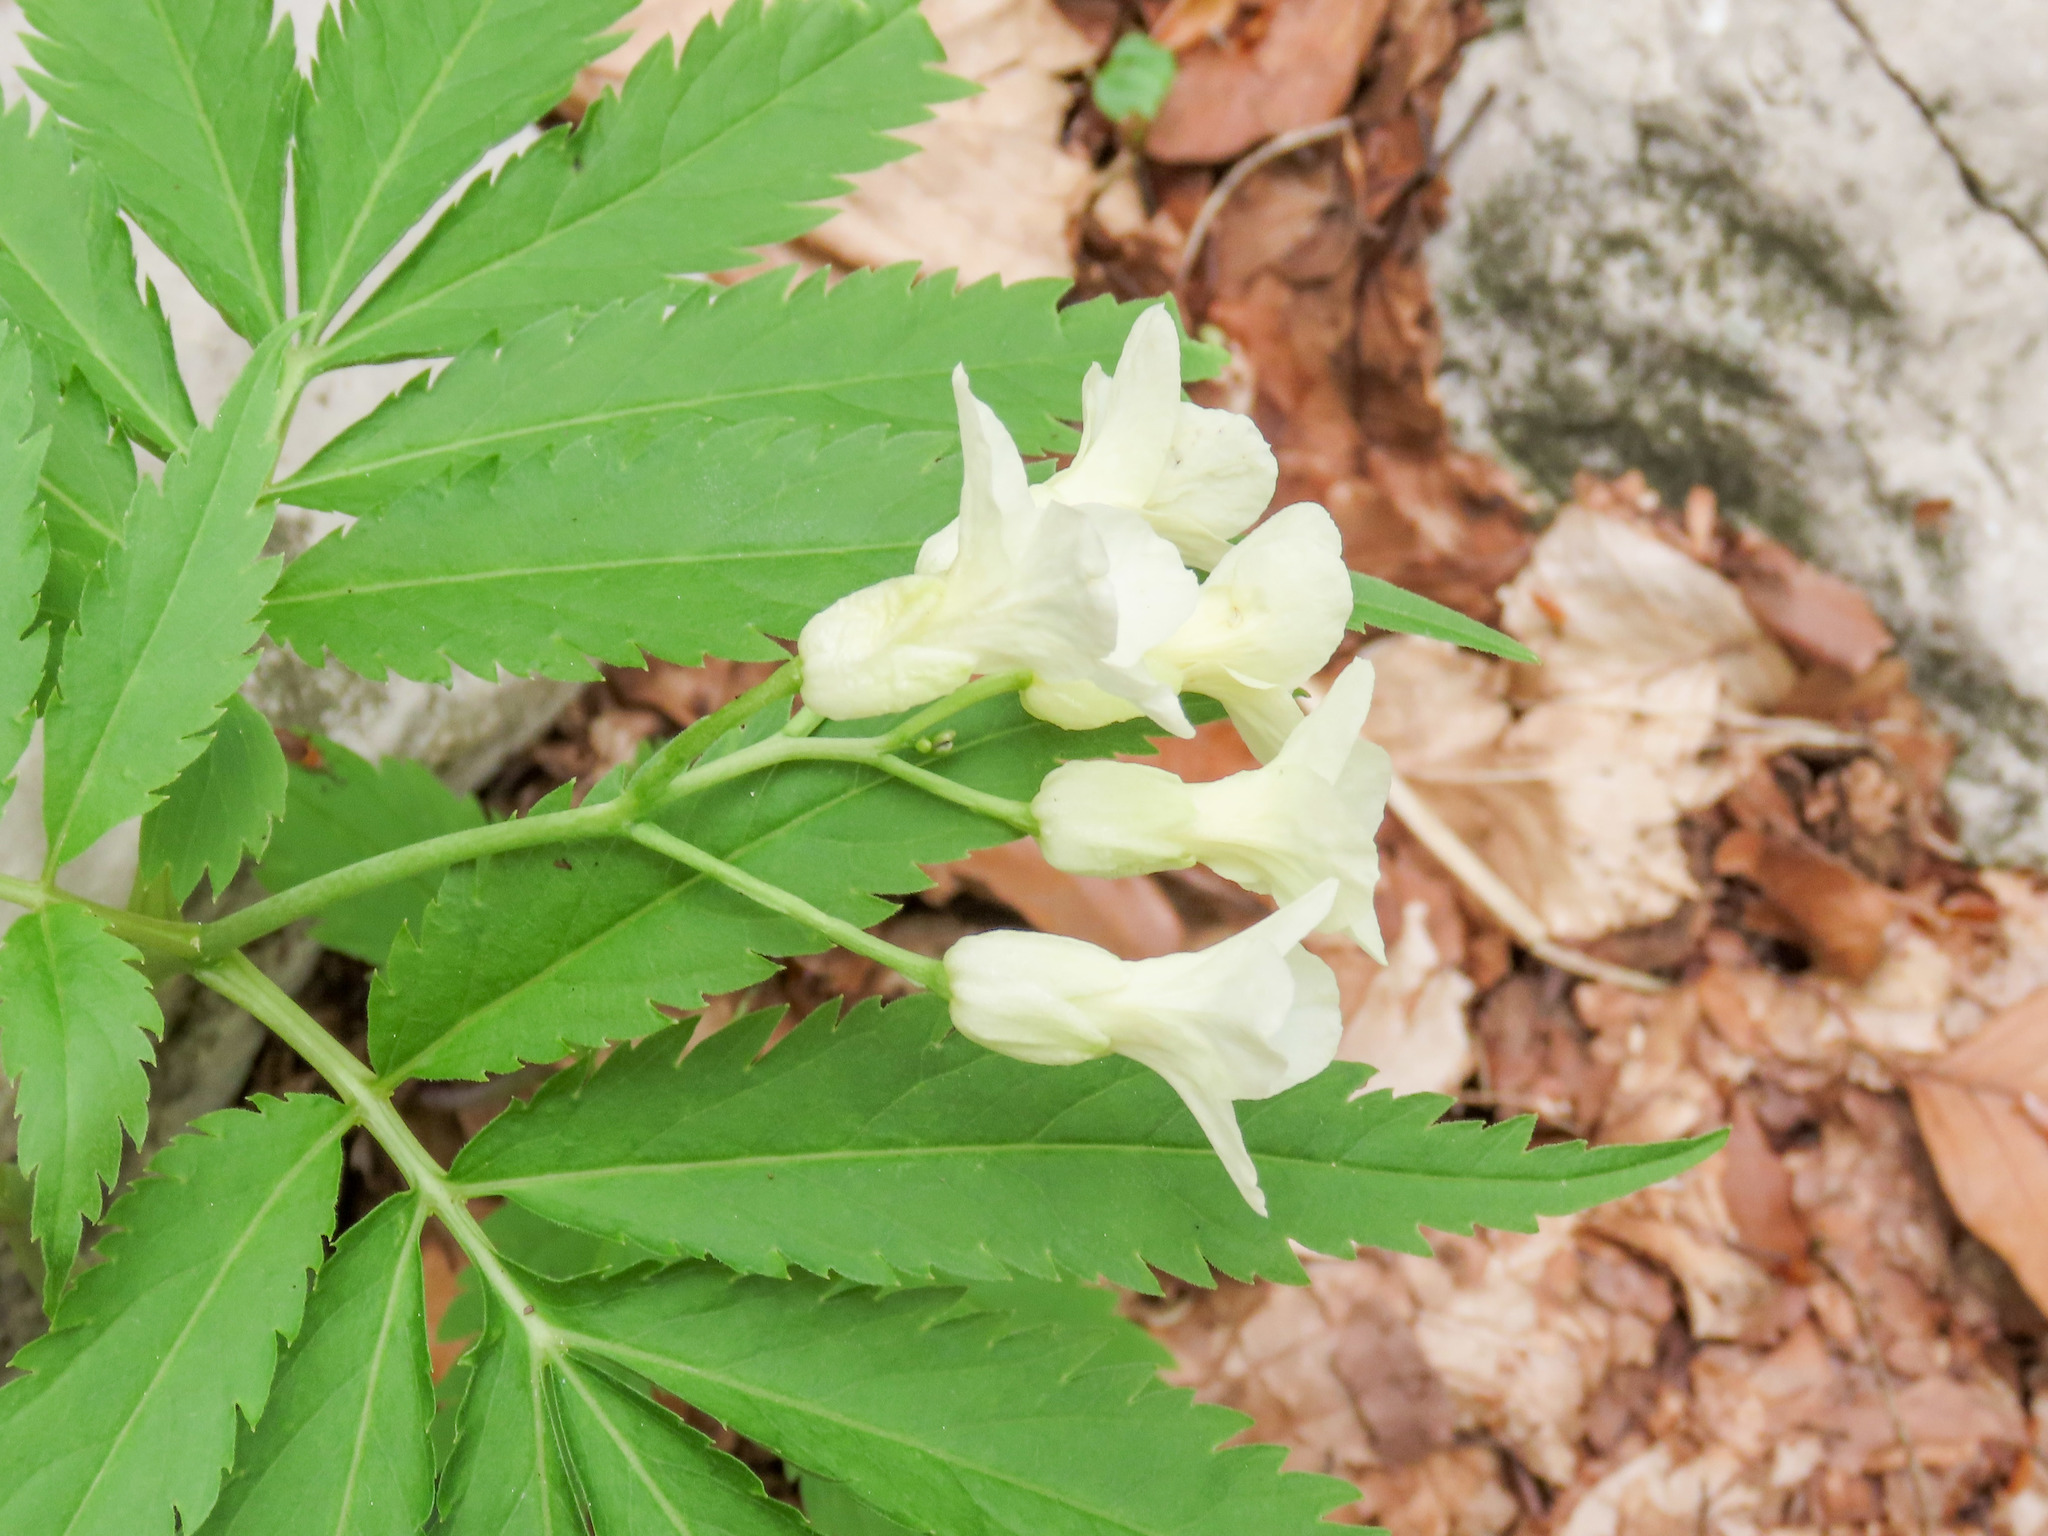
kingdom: Plantae
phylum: Tracheophyta
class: Magnoliopsida
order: Brassicales
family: Brassicaceae
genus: Cardamine
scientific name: Cardamine kitaibelii
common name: Kitaibel's bitter-cress
